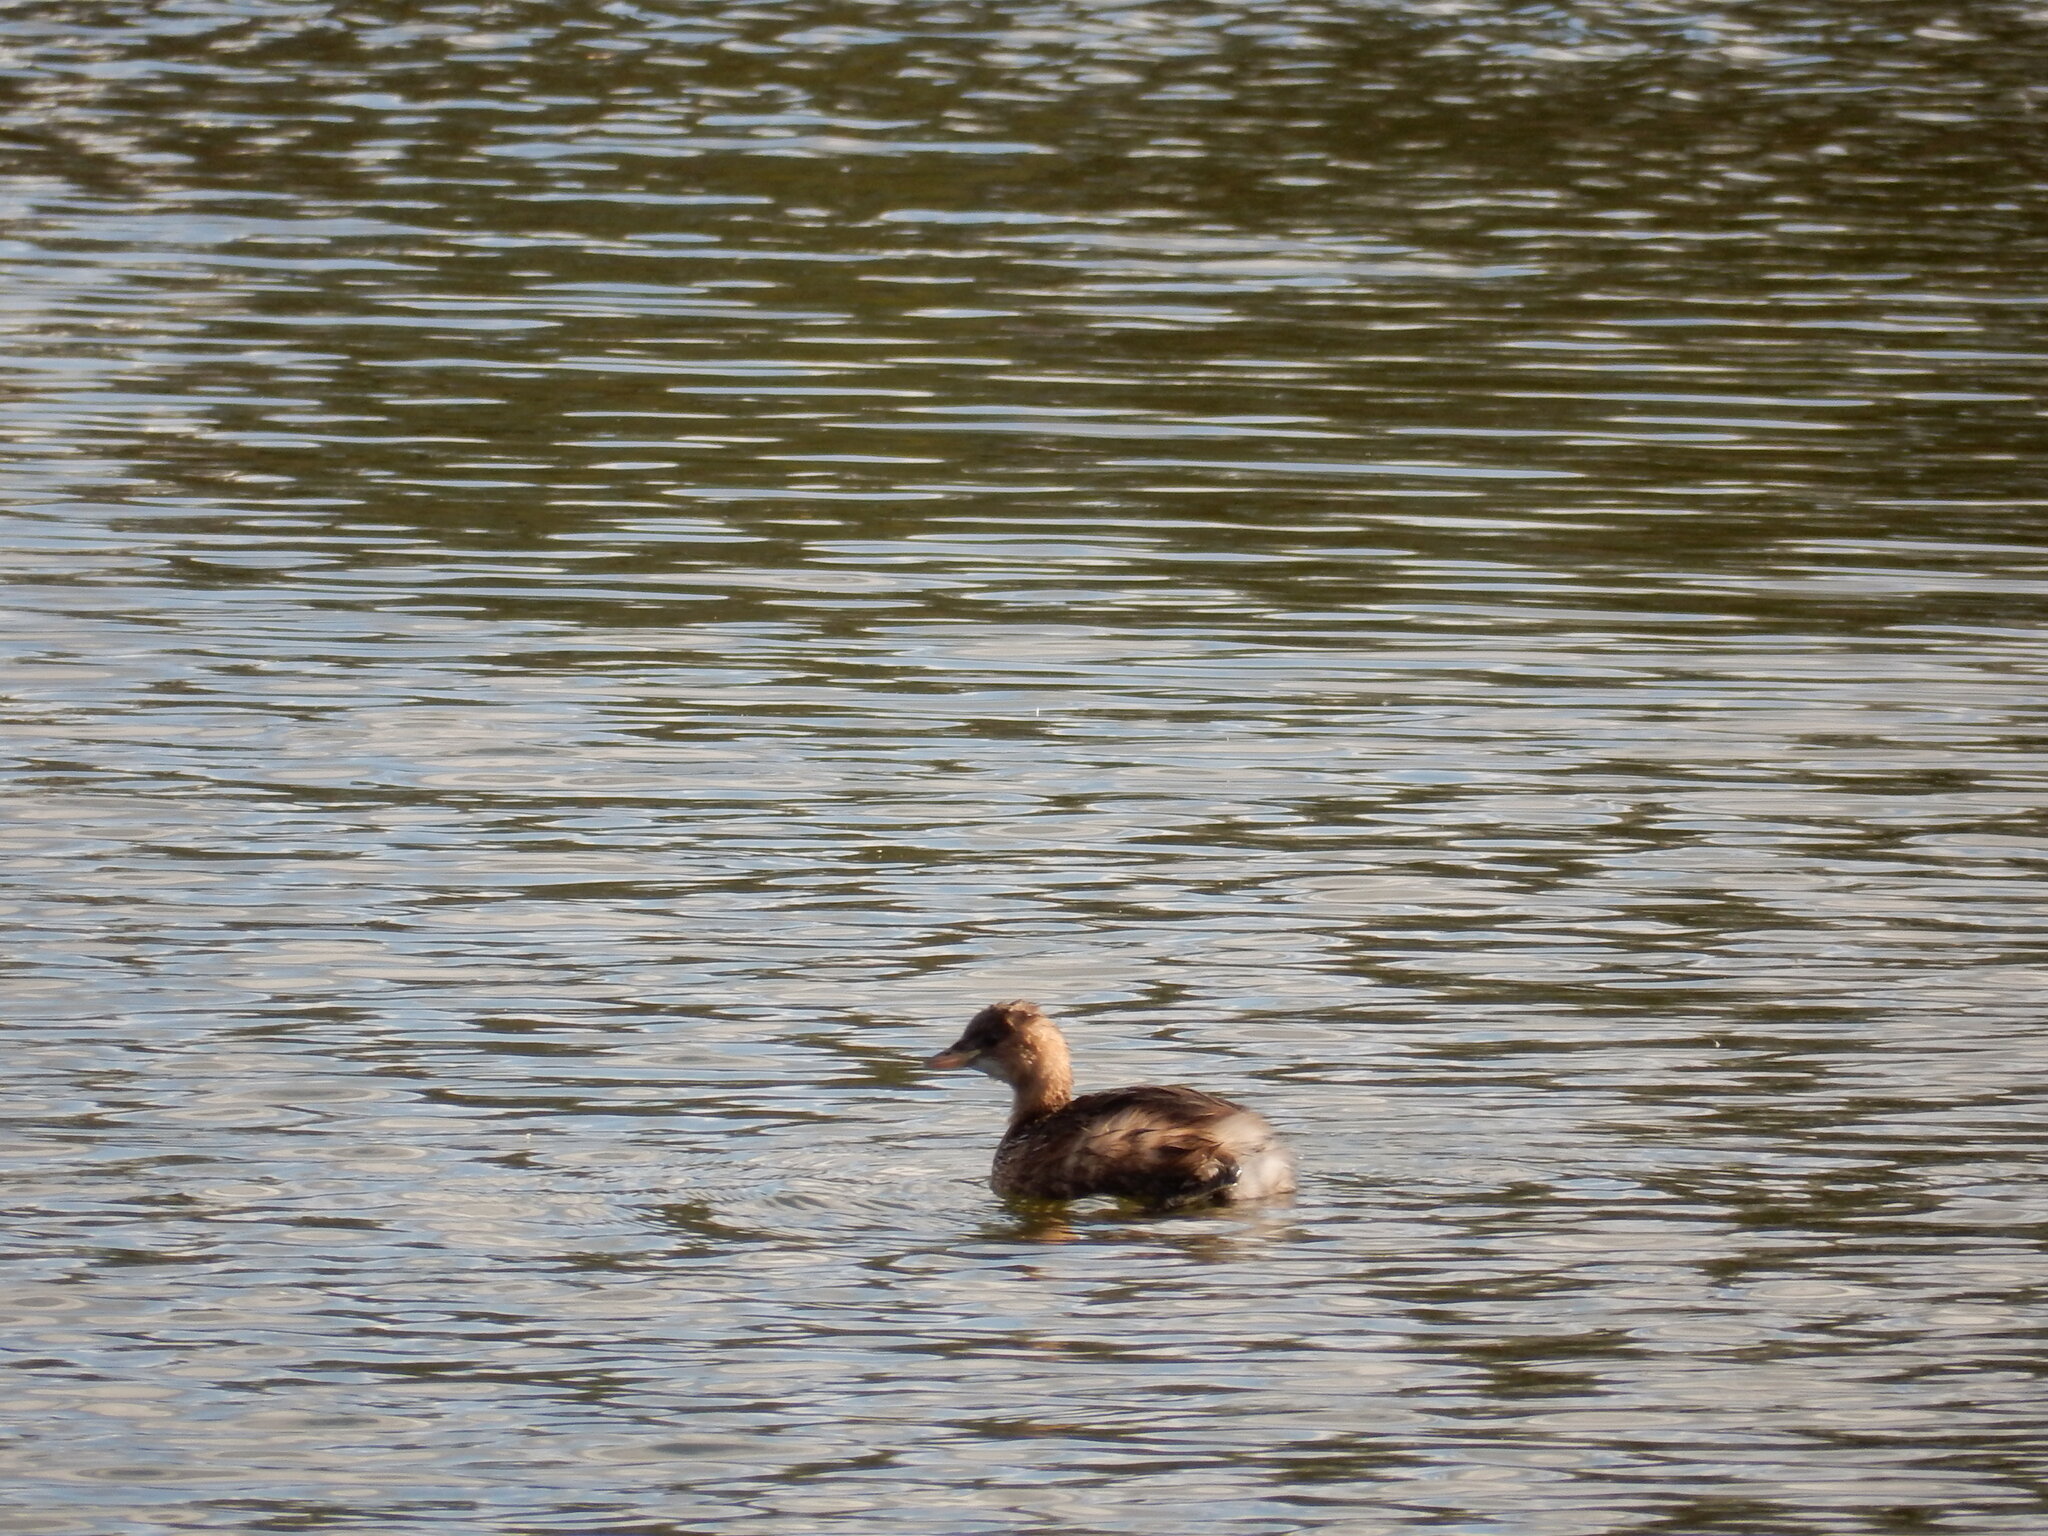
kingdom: Animalia
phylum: Chordata
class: Aves
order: Podicipediformes
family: Podicipedidae
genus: Tachybaptus
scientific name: Tachybaptus ruficollis
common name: Little grebe
